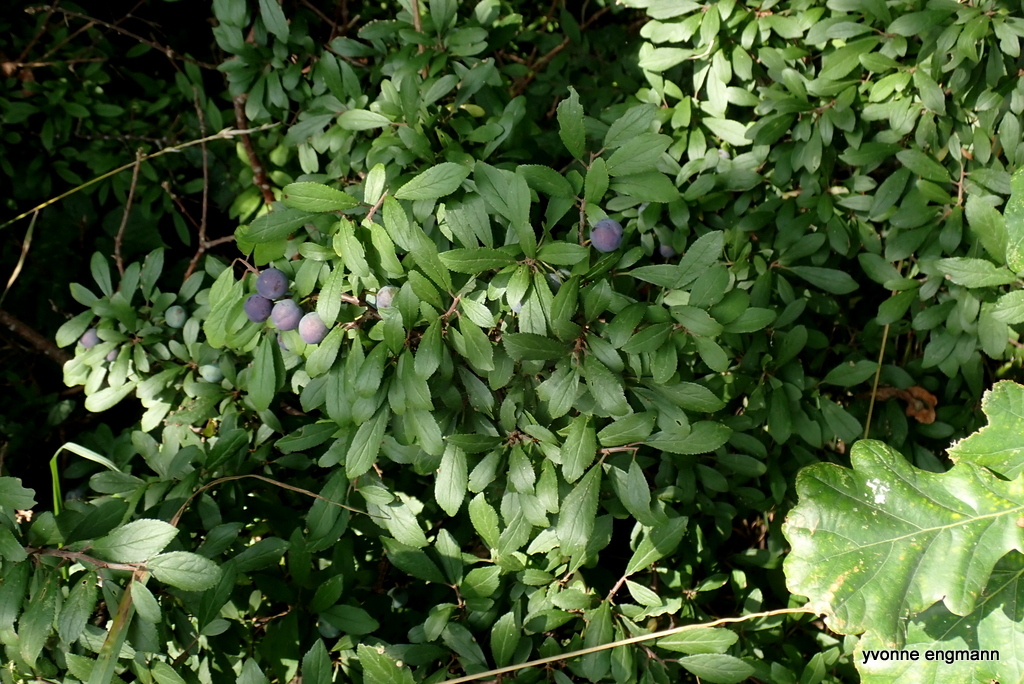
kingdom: Plantae
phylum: Tracheophyta
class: Magnoliopsida
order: Rosales
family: Rosaceae
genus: Prunus
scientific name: Prunus spinosa
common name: Blackthorn
